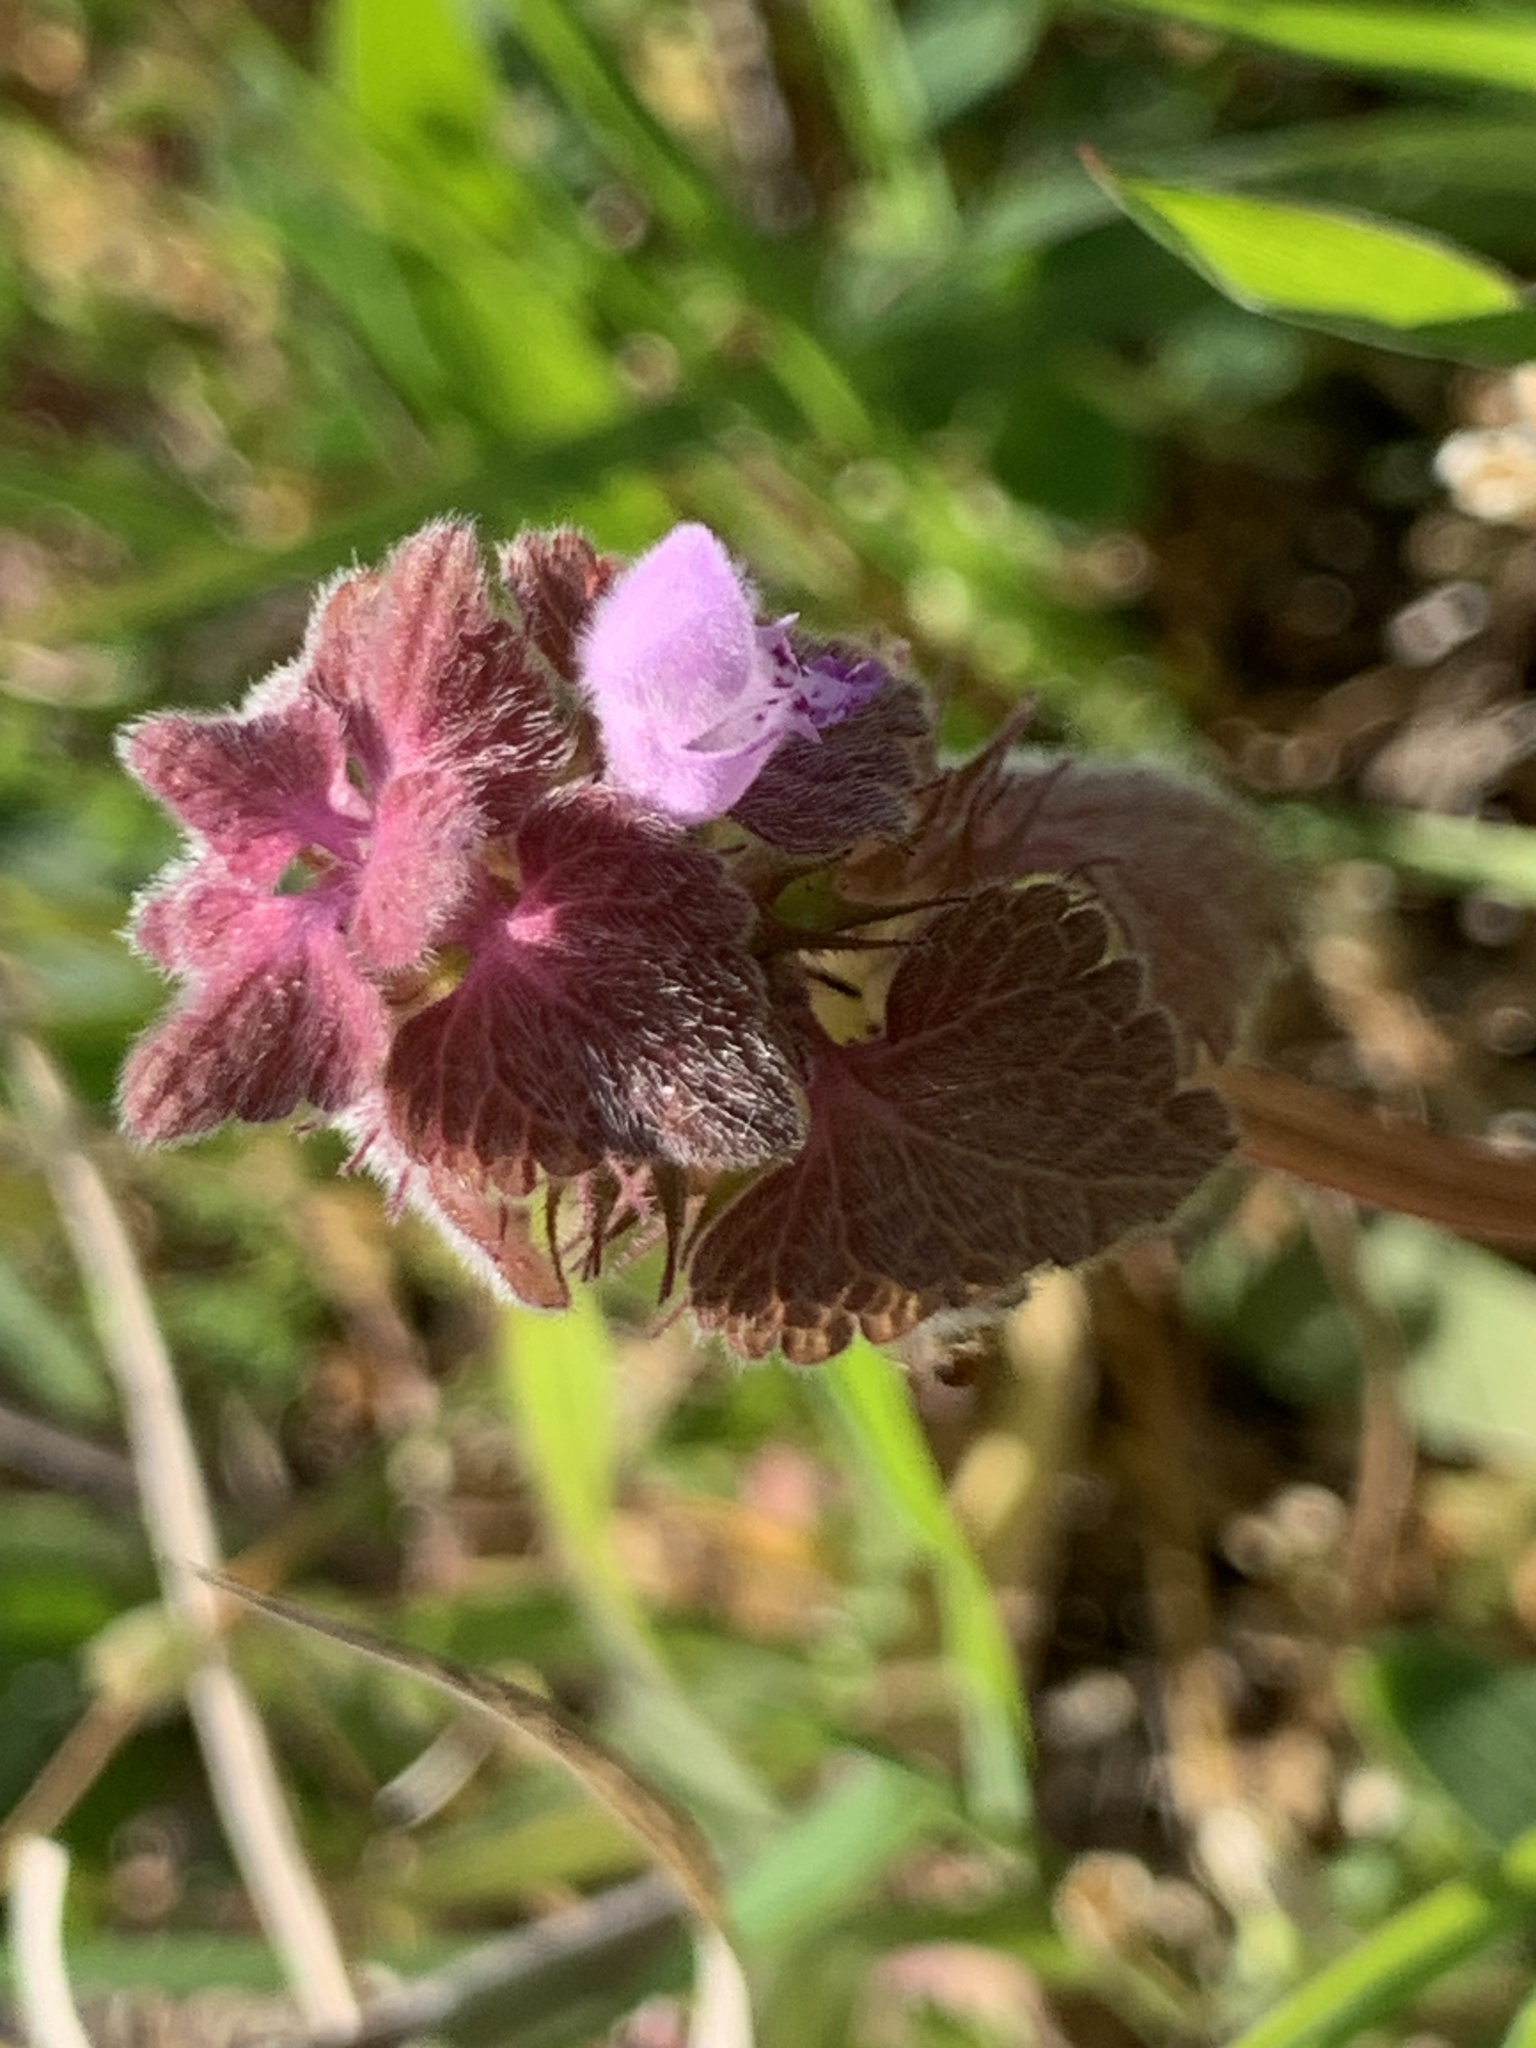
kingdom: Plantae
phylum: Tracheophyta
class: Magnoliopsida
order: Lamiales
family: Lamiaceae
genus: Lamium
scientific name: Lamium purpureum
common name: Red dead-nettle
